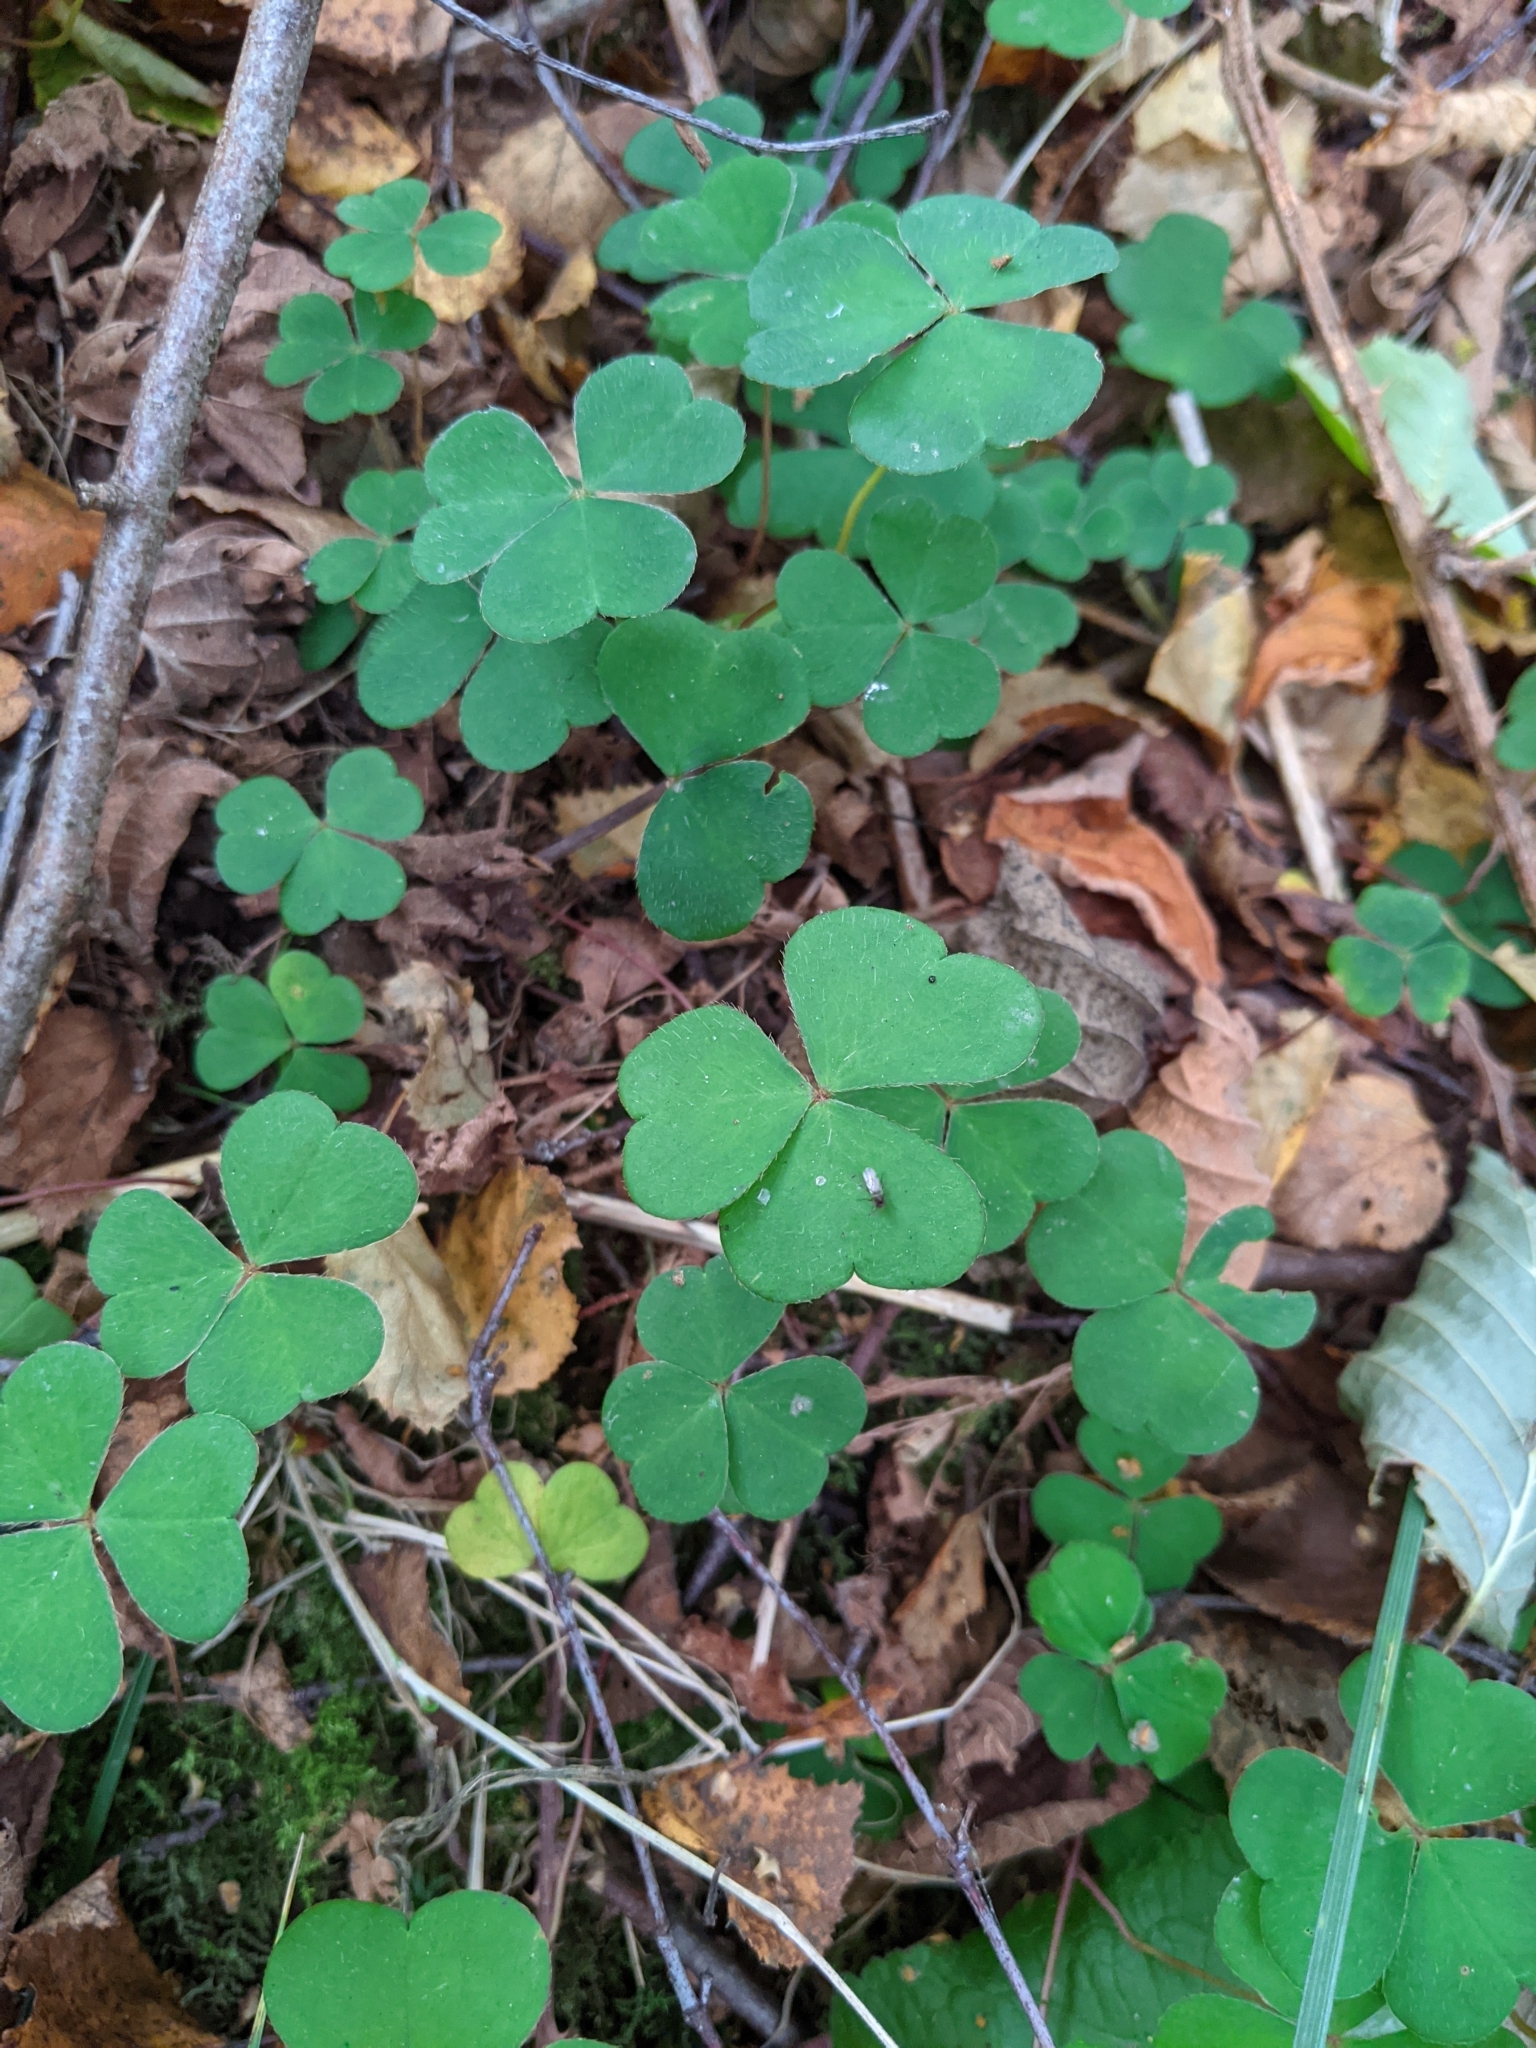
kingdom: Plantae
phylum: Tracheophyta
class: Magnoliopsida
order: Oxalidales
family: Oxalidaceae
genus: Oxalis
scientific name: Oxalis acetosella
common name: Wood-sorrel
